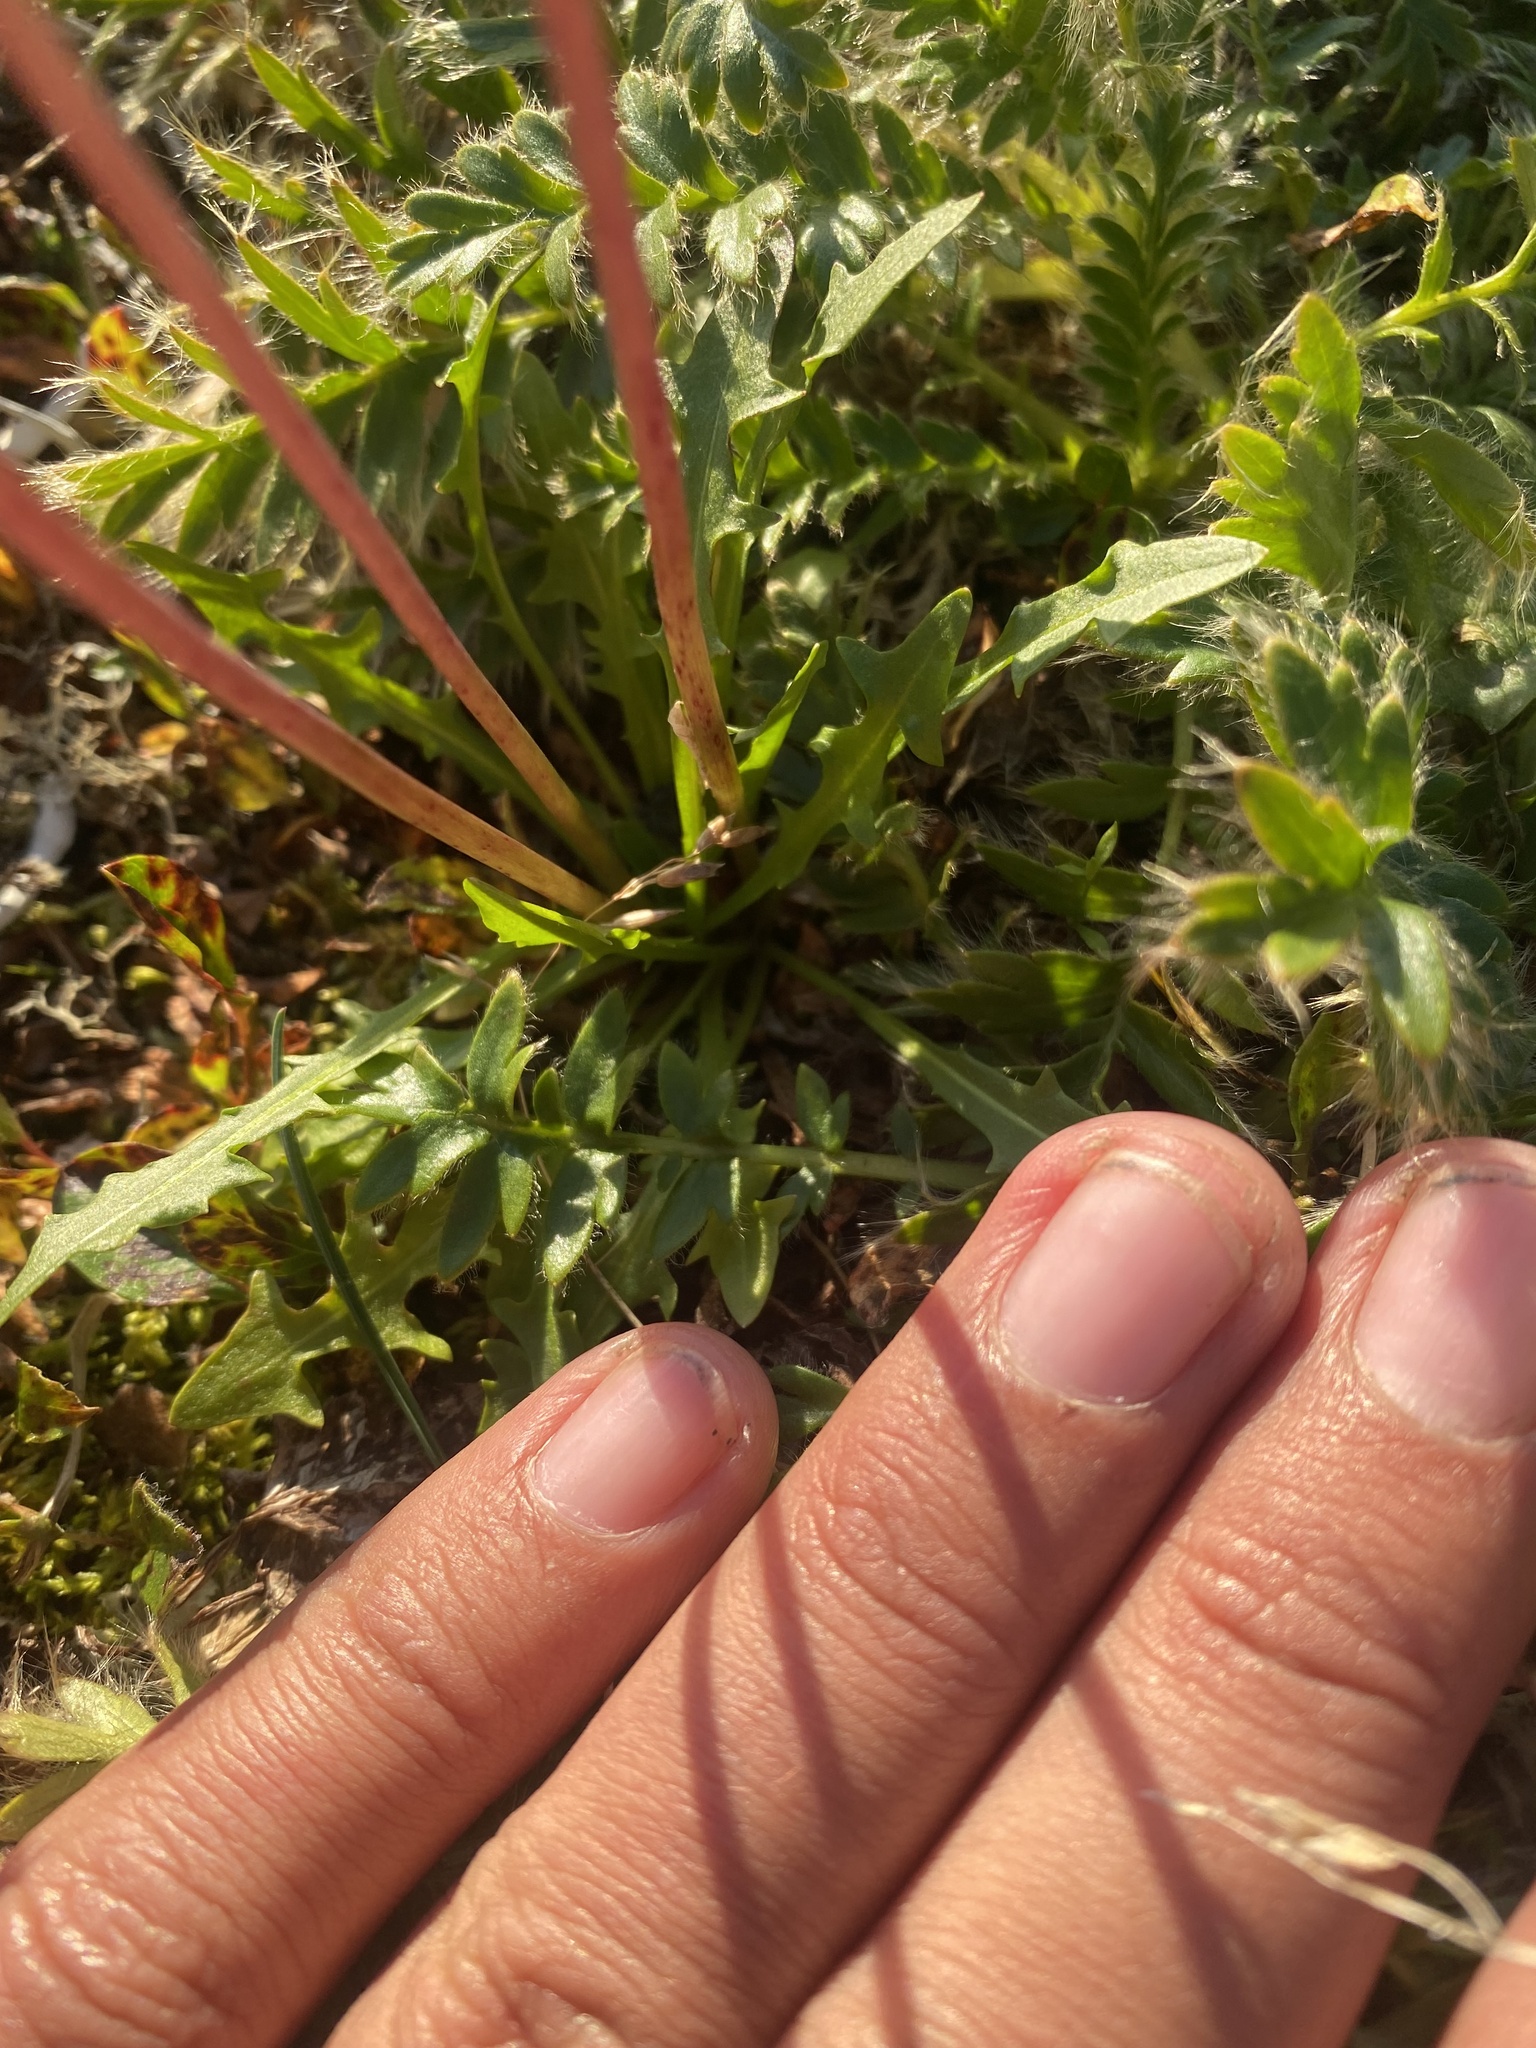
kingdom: Plantae
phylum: Tracheophyta
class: Magnoliopsida
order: Asterales
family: Asteraceae
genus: Taraxacum
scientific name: Taraxacum glabrum
